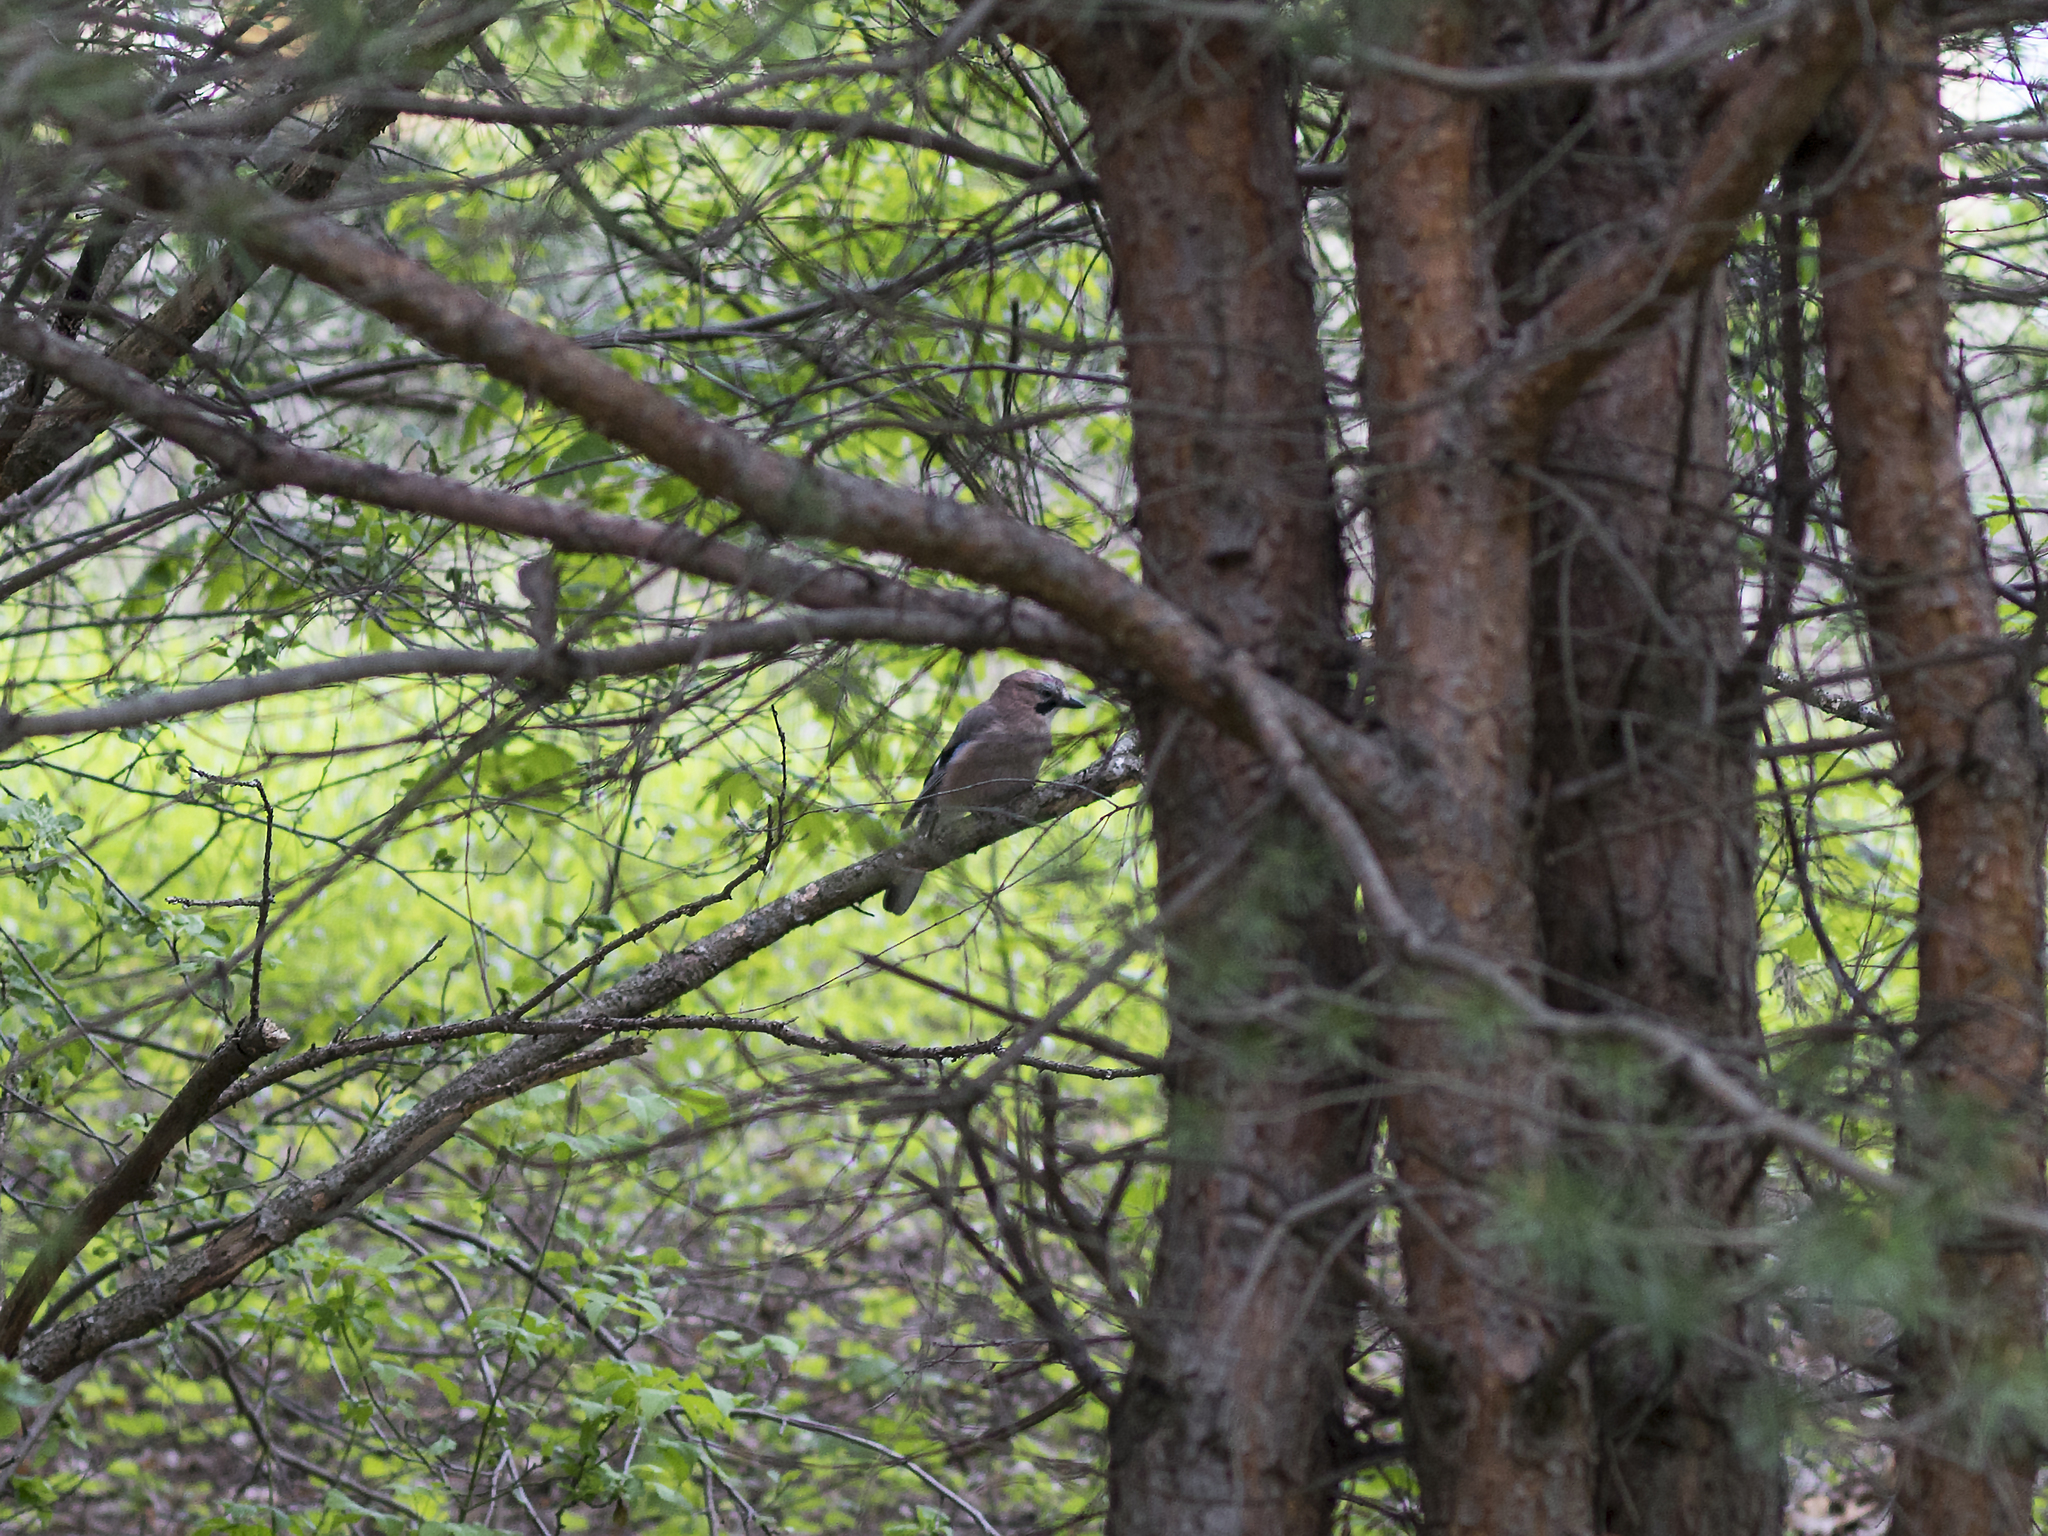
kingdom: Animalia
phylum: Chordata
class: Aves
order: Passeriformes
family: Corvidae
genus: Garrulus
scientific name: Garrulus glandarius
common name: Eurasian jay
